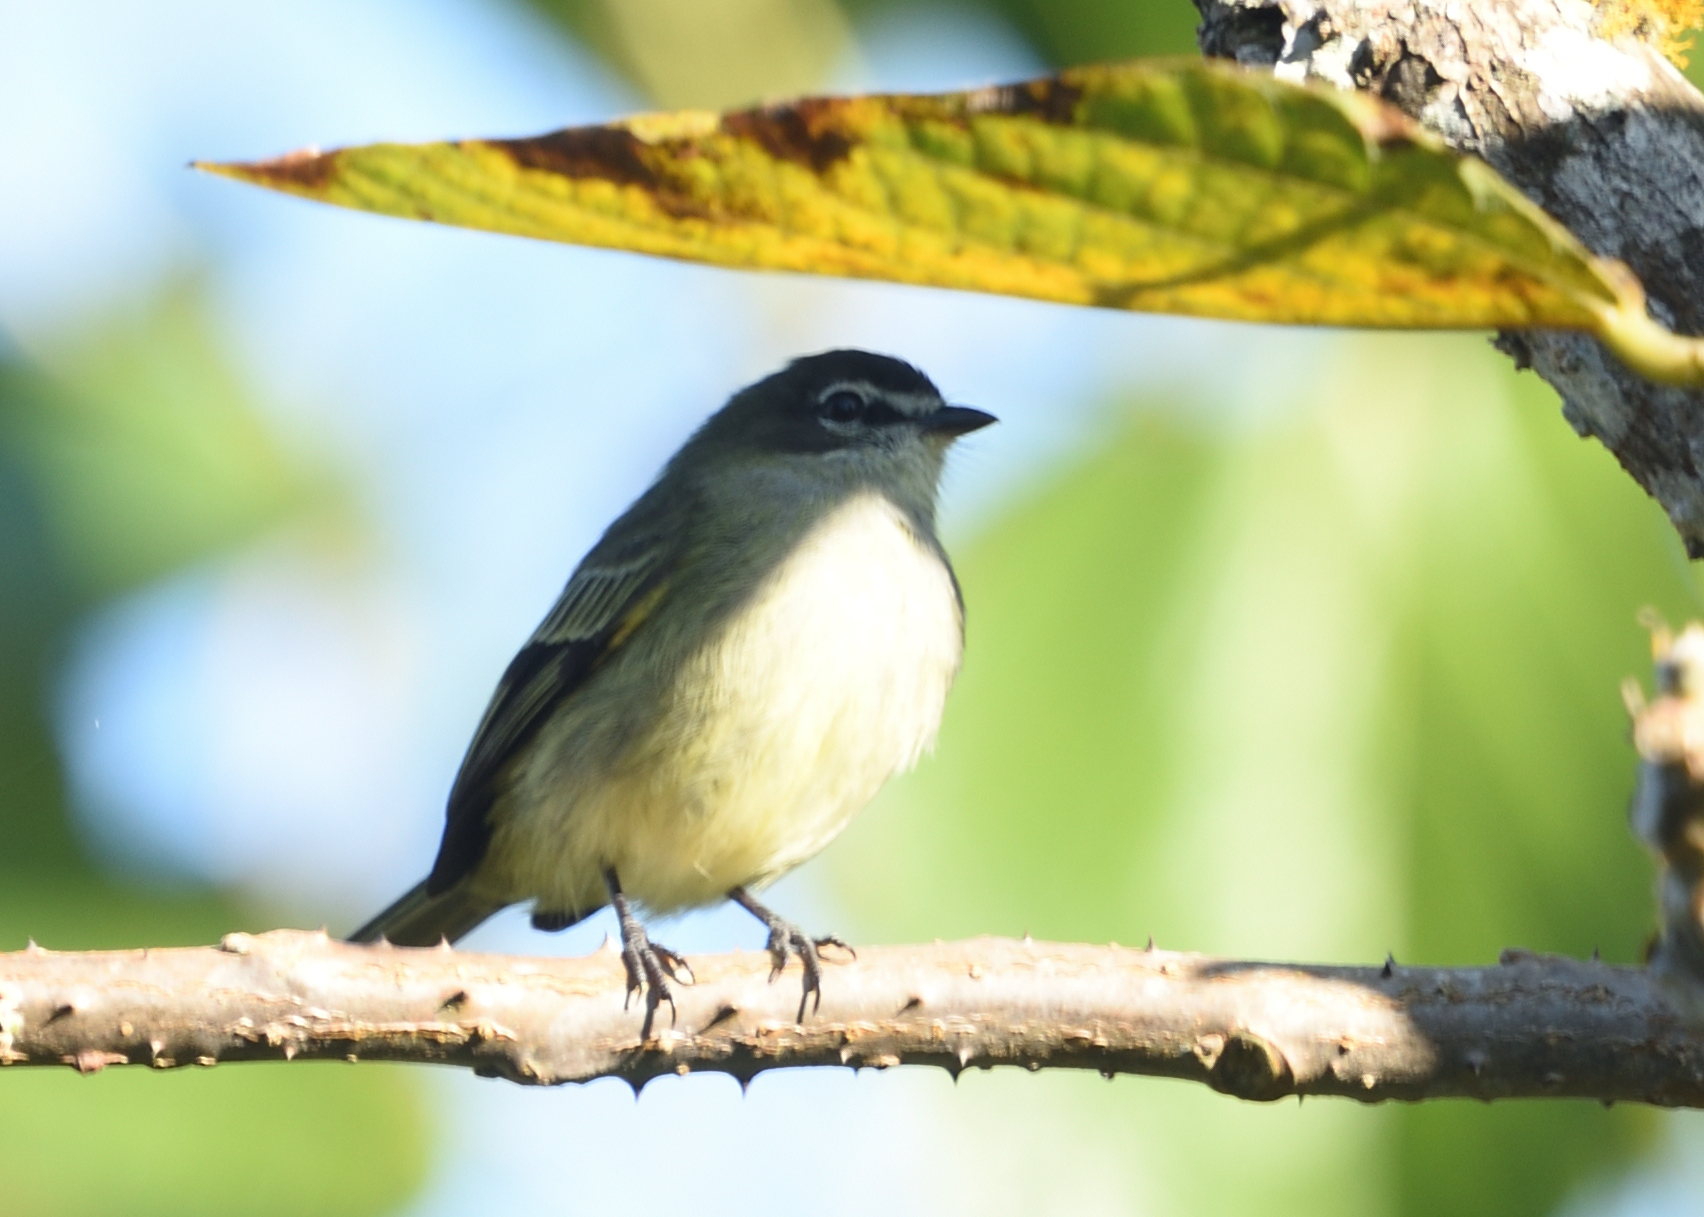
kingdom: Animalia
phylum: Chordata
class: Aves
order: Passeriformes
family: Tyrannidae
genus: Zimmerius
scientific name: Zimmerius vilissimus
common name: Paltry tyrannulet
